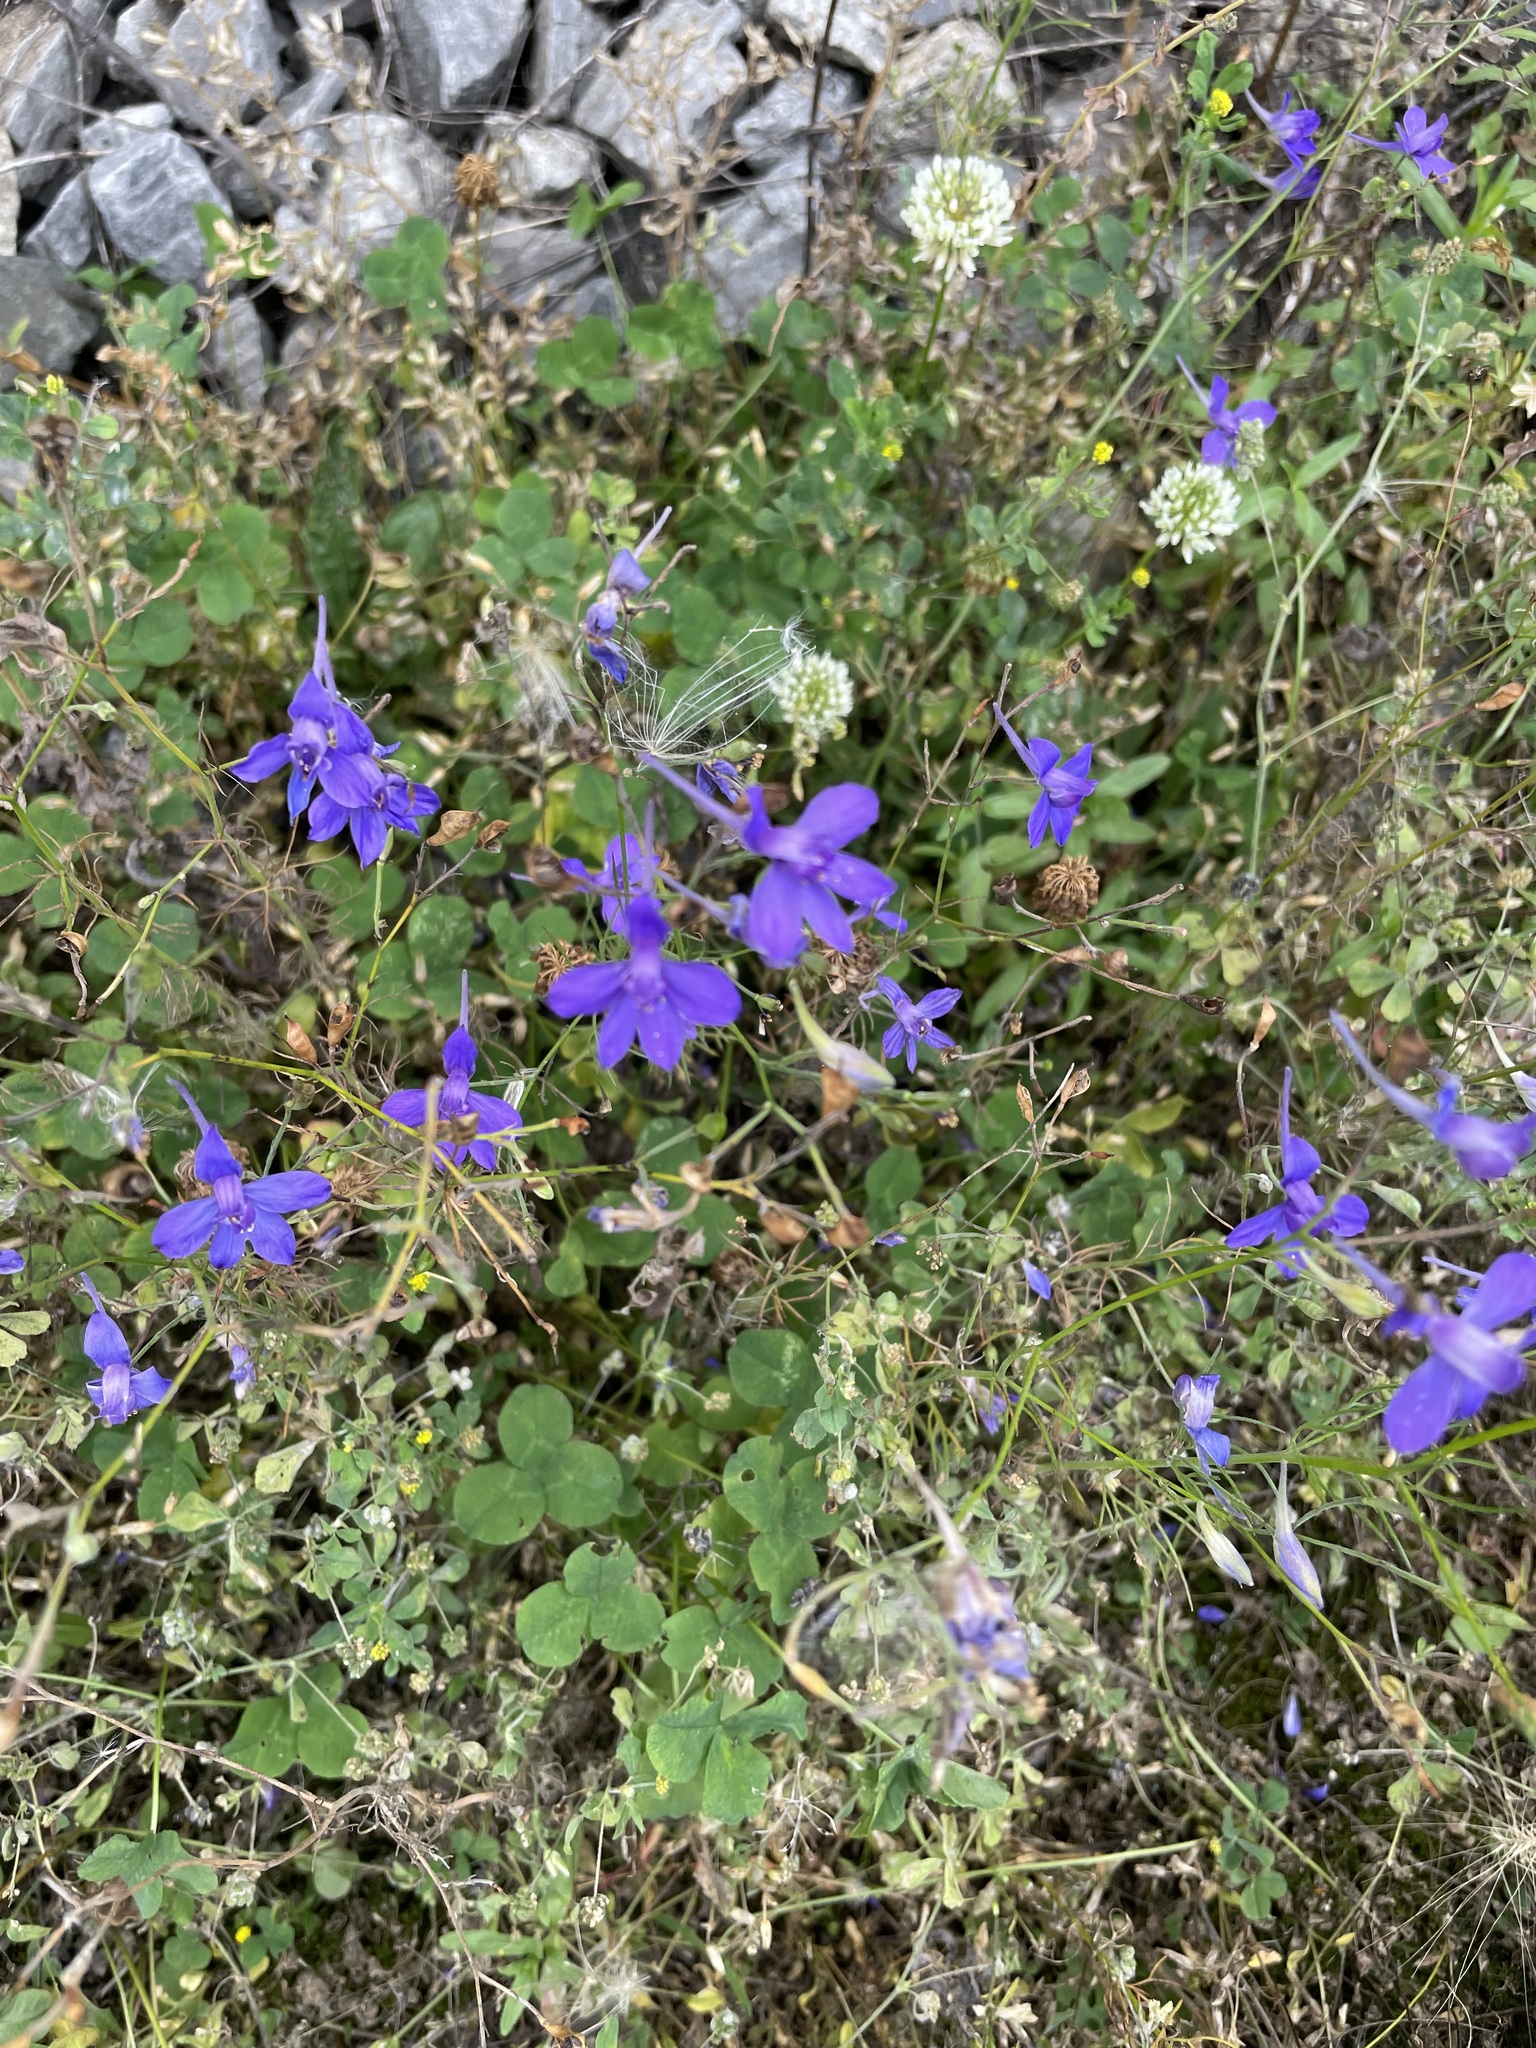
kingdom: Plantae
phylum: Tracheophyta
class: Magnoliopsida
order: Ranunculales
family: Ranunculaceae
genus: Delphinium
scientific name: Delphinium consolida
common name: Branching larkspur
